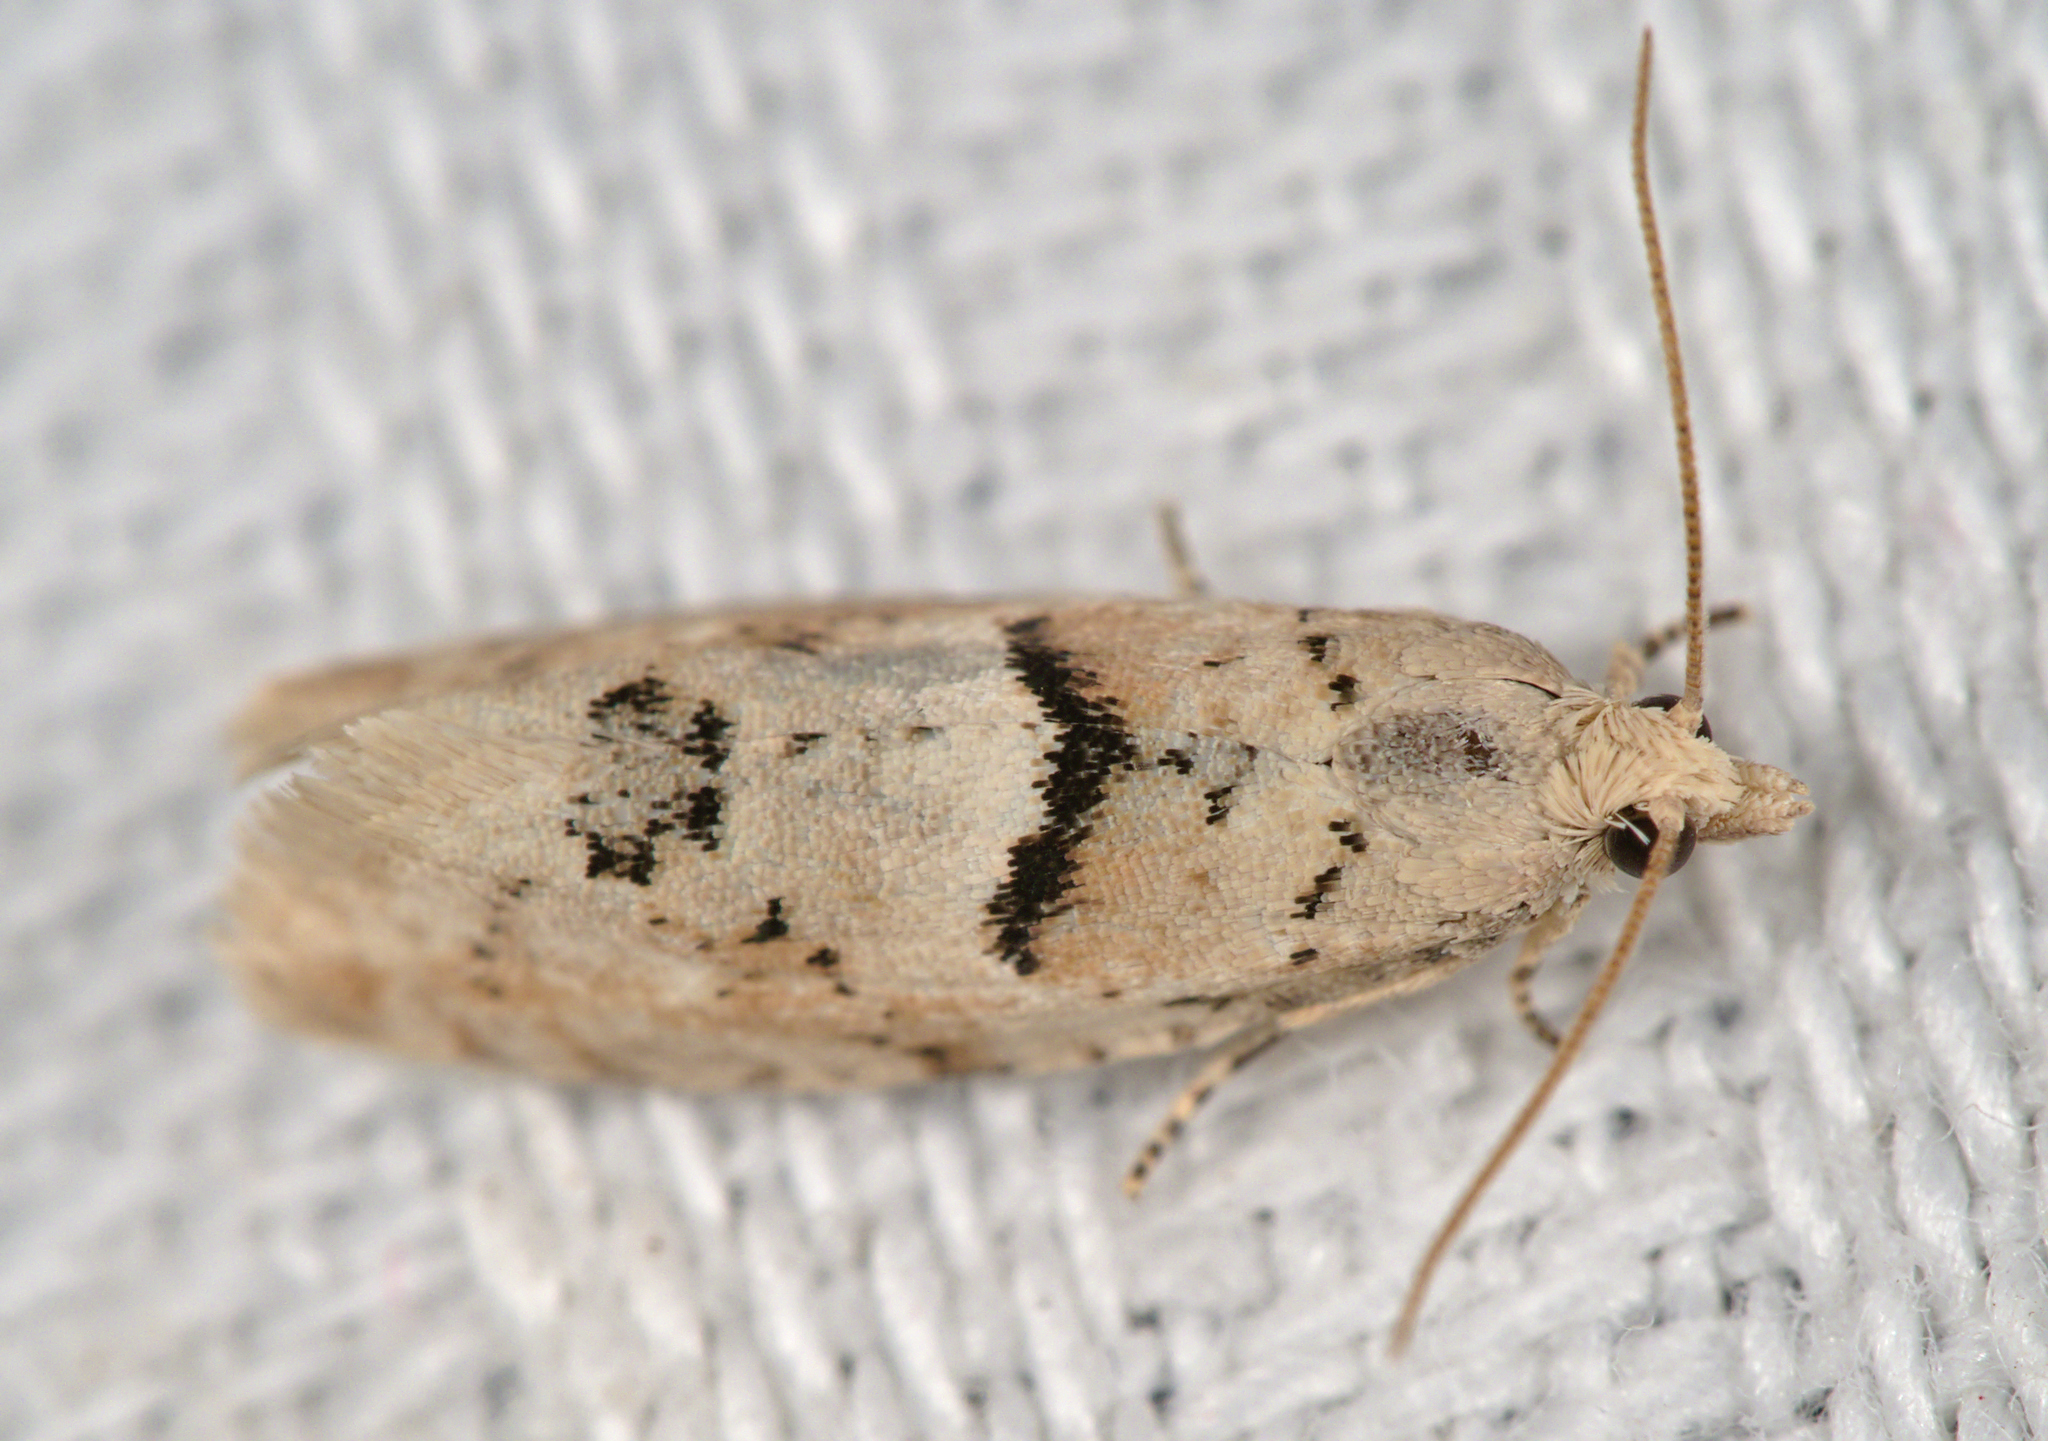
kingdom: Animalia
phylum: Arthropoda
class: Insecta
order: Lepidoptera
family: Tortricidae
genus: Epinotia
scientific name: Epinotia bilunana
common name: Crescent bell
